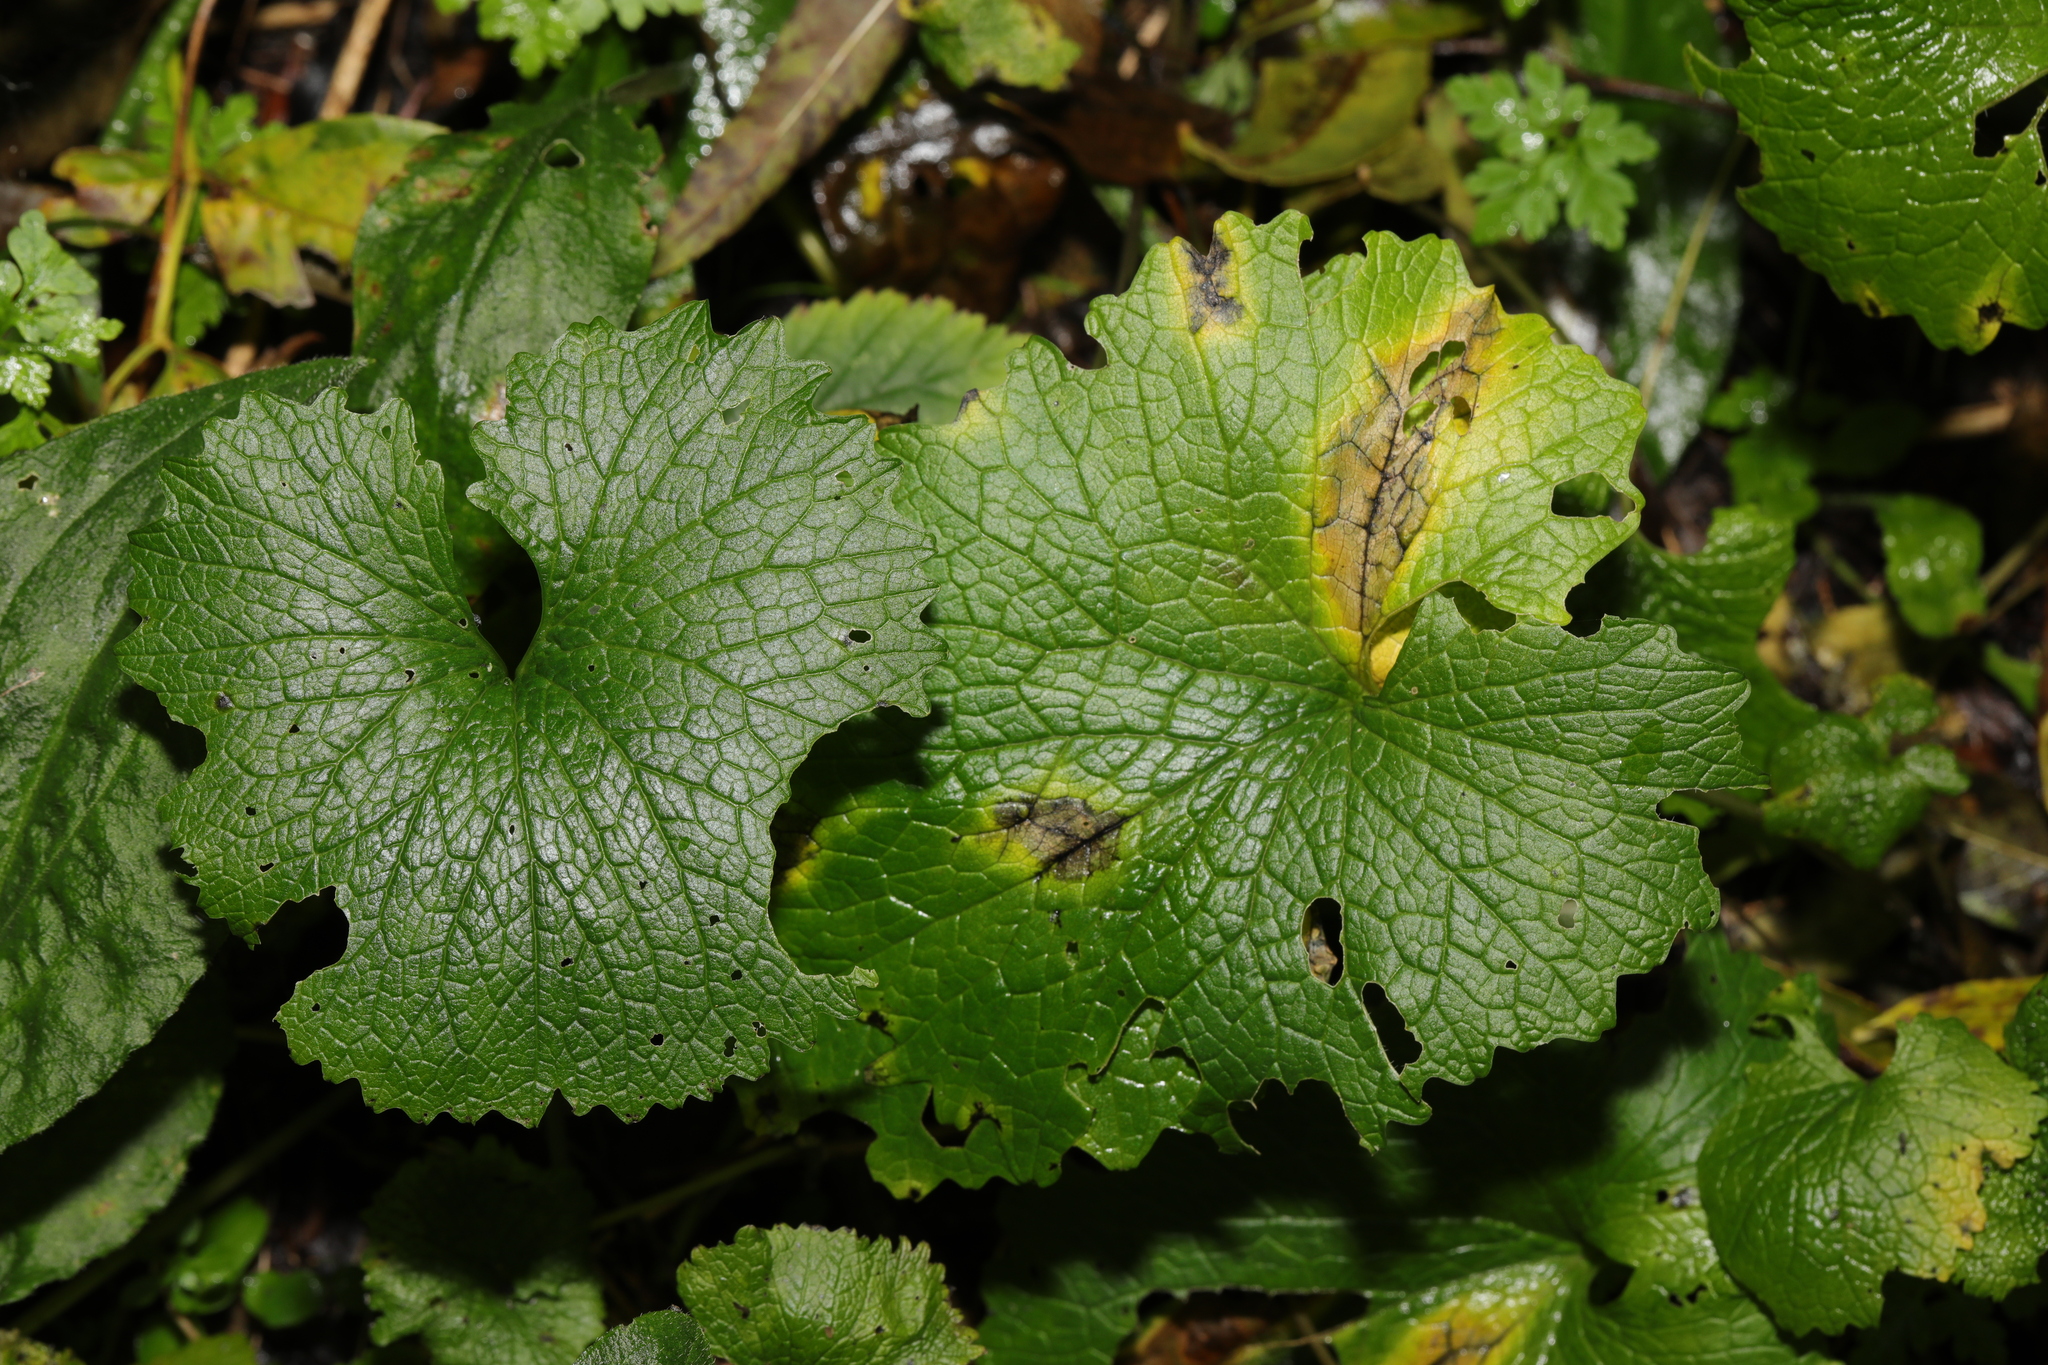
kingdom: Plantae
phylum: Tracheophyta
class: Magnoliopsida
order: Brassicales
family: Brassicaceae
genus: Alliaria
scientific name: Alliaria petiolata
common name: Garlic mustard
